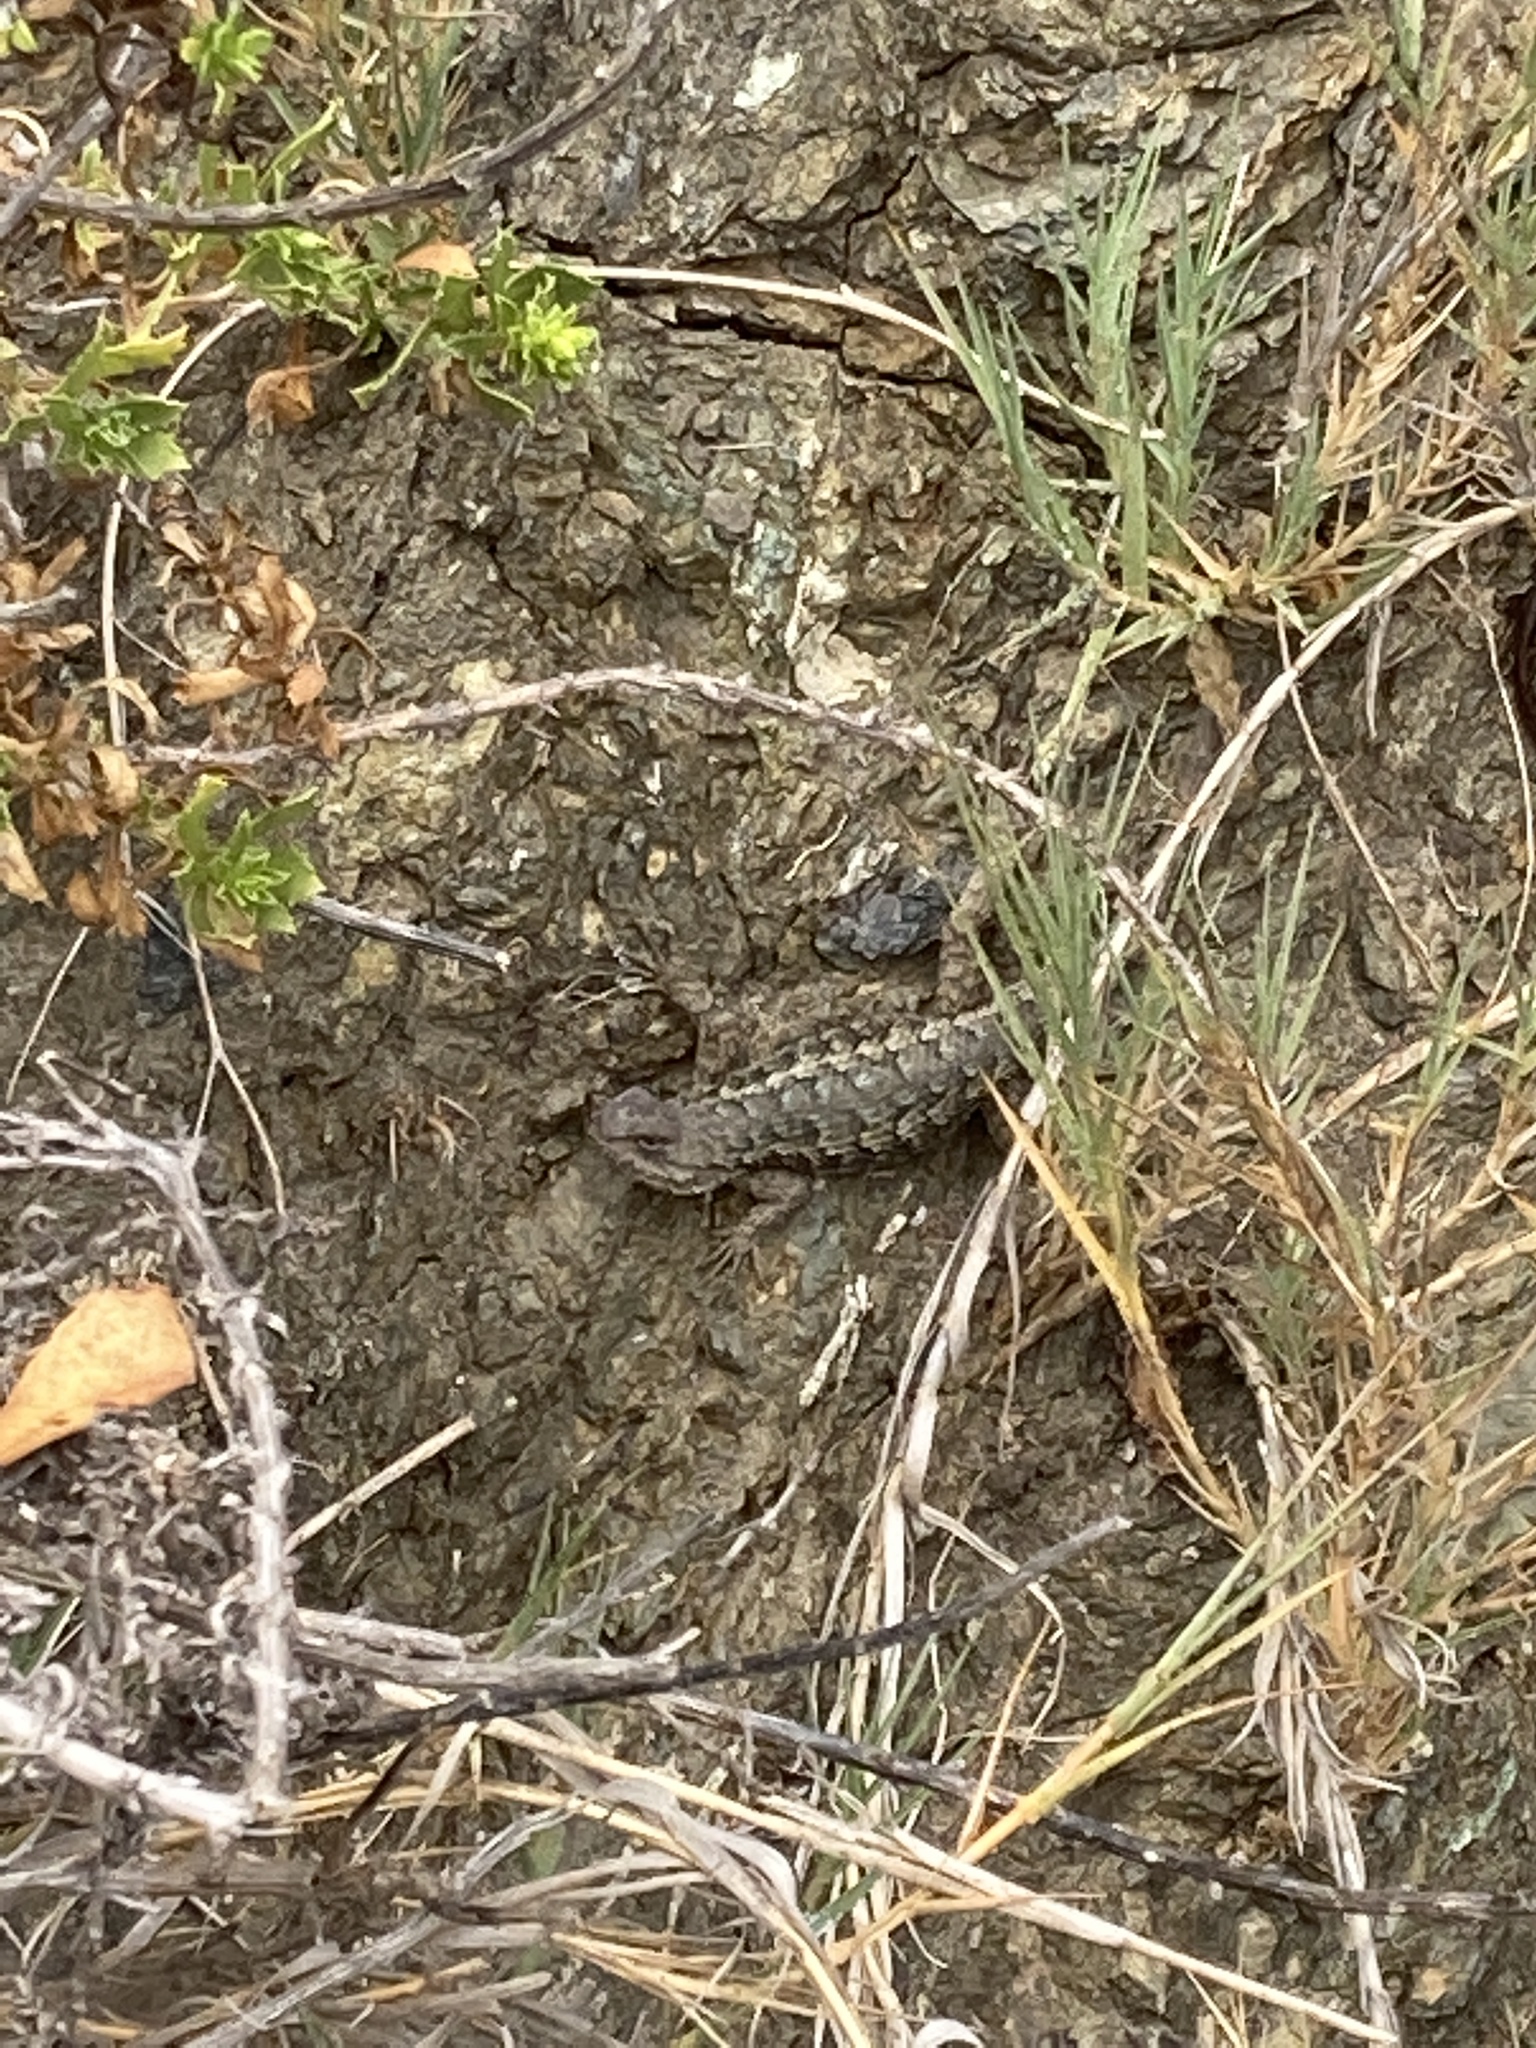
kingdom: Animalia
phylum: Chordata
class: Squamata
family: Phrynosomatidae
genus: Sceloporus
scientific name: Sceloporus occidentalis
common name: Western fence lizard
